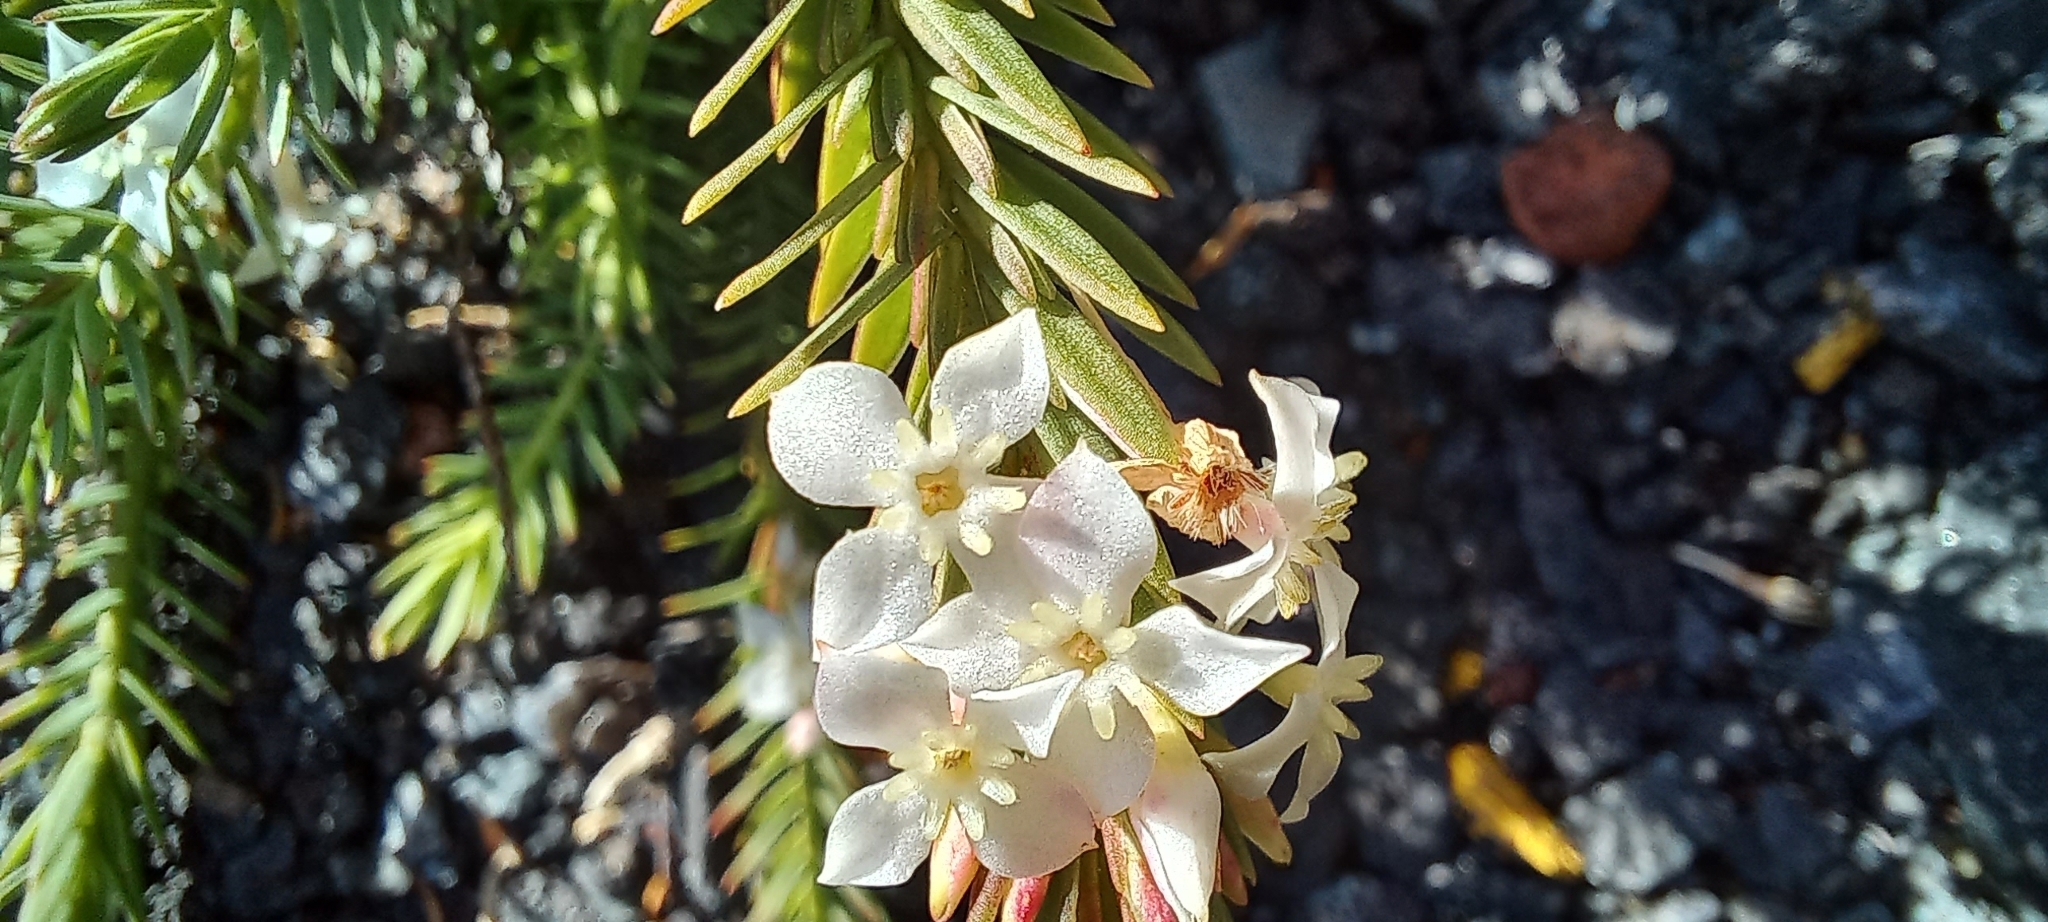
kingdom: Plantae
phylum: Tracheophyta
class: Magnoliopsida
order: Malvales
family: Thymelaeaceae
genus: Struthiola
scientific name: Struthiola salteri
